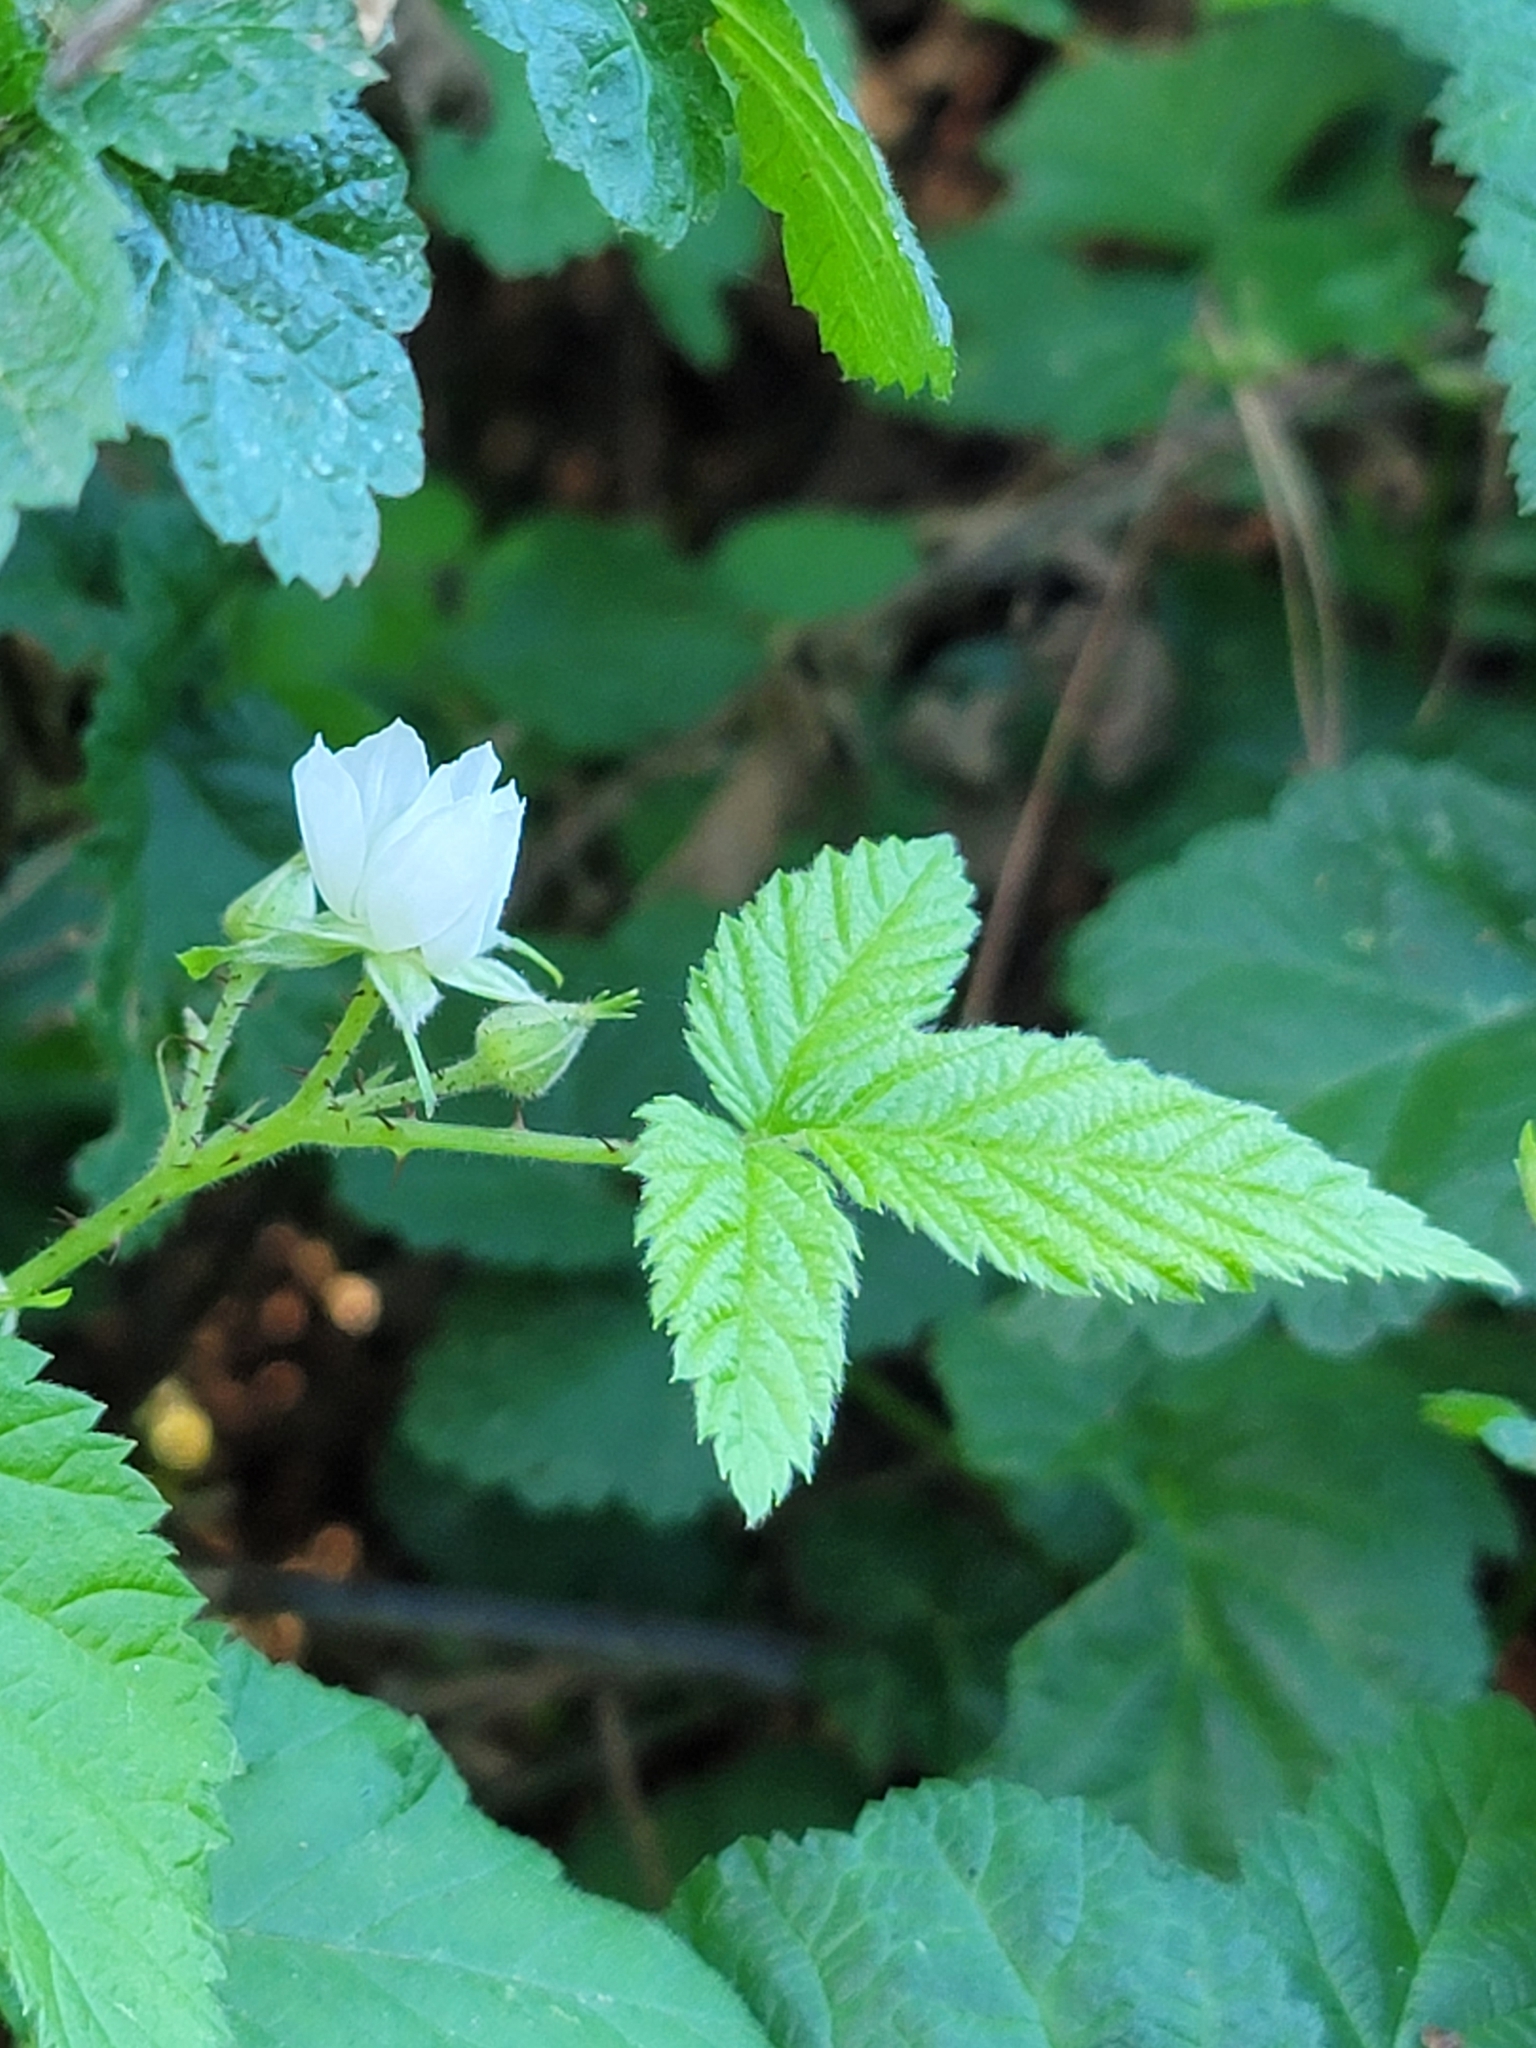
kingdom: Plantae
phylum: Tracheophyta
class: Magnoliopsida
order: Rosales
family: Rosaceae
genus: Rubus
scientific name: Rubus ursinus
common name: Pacific blackberry
